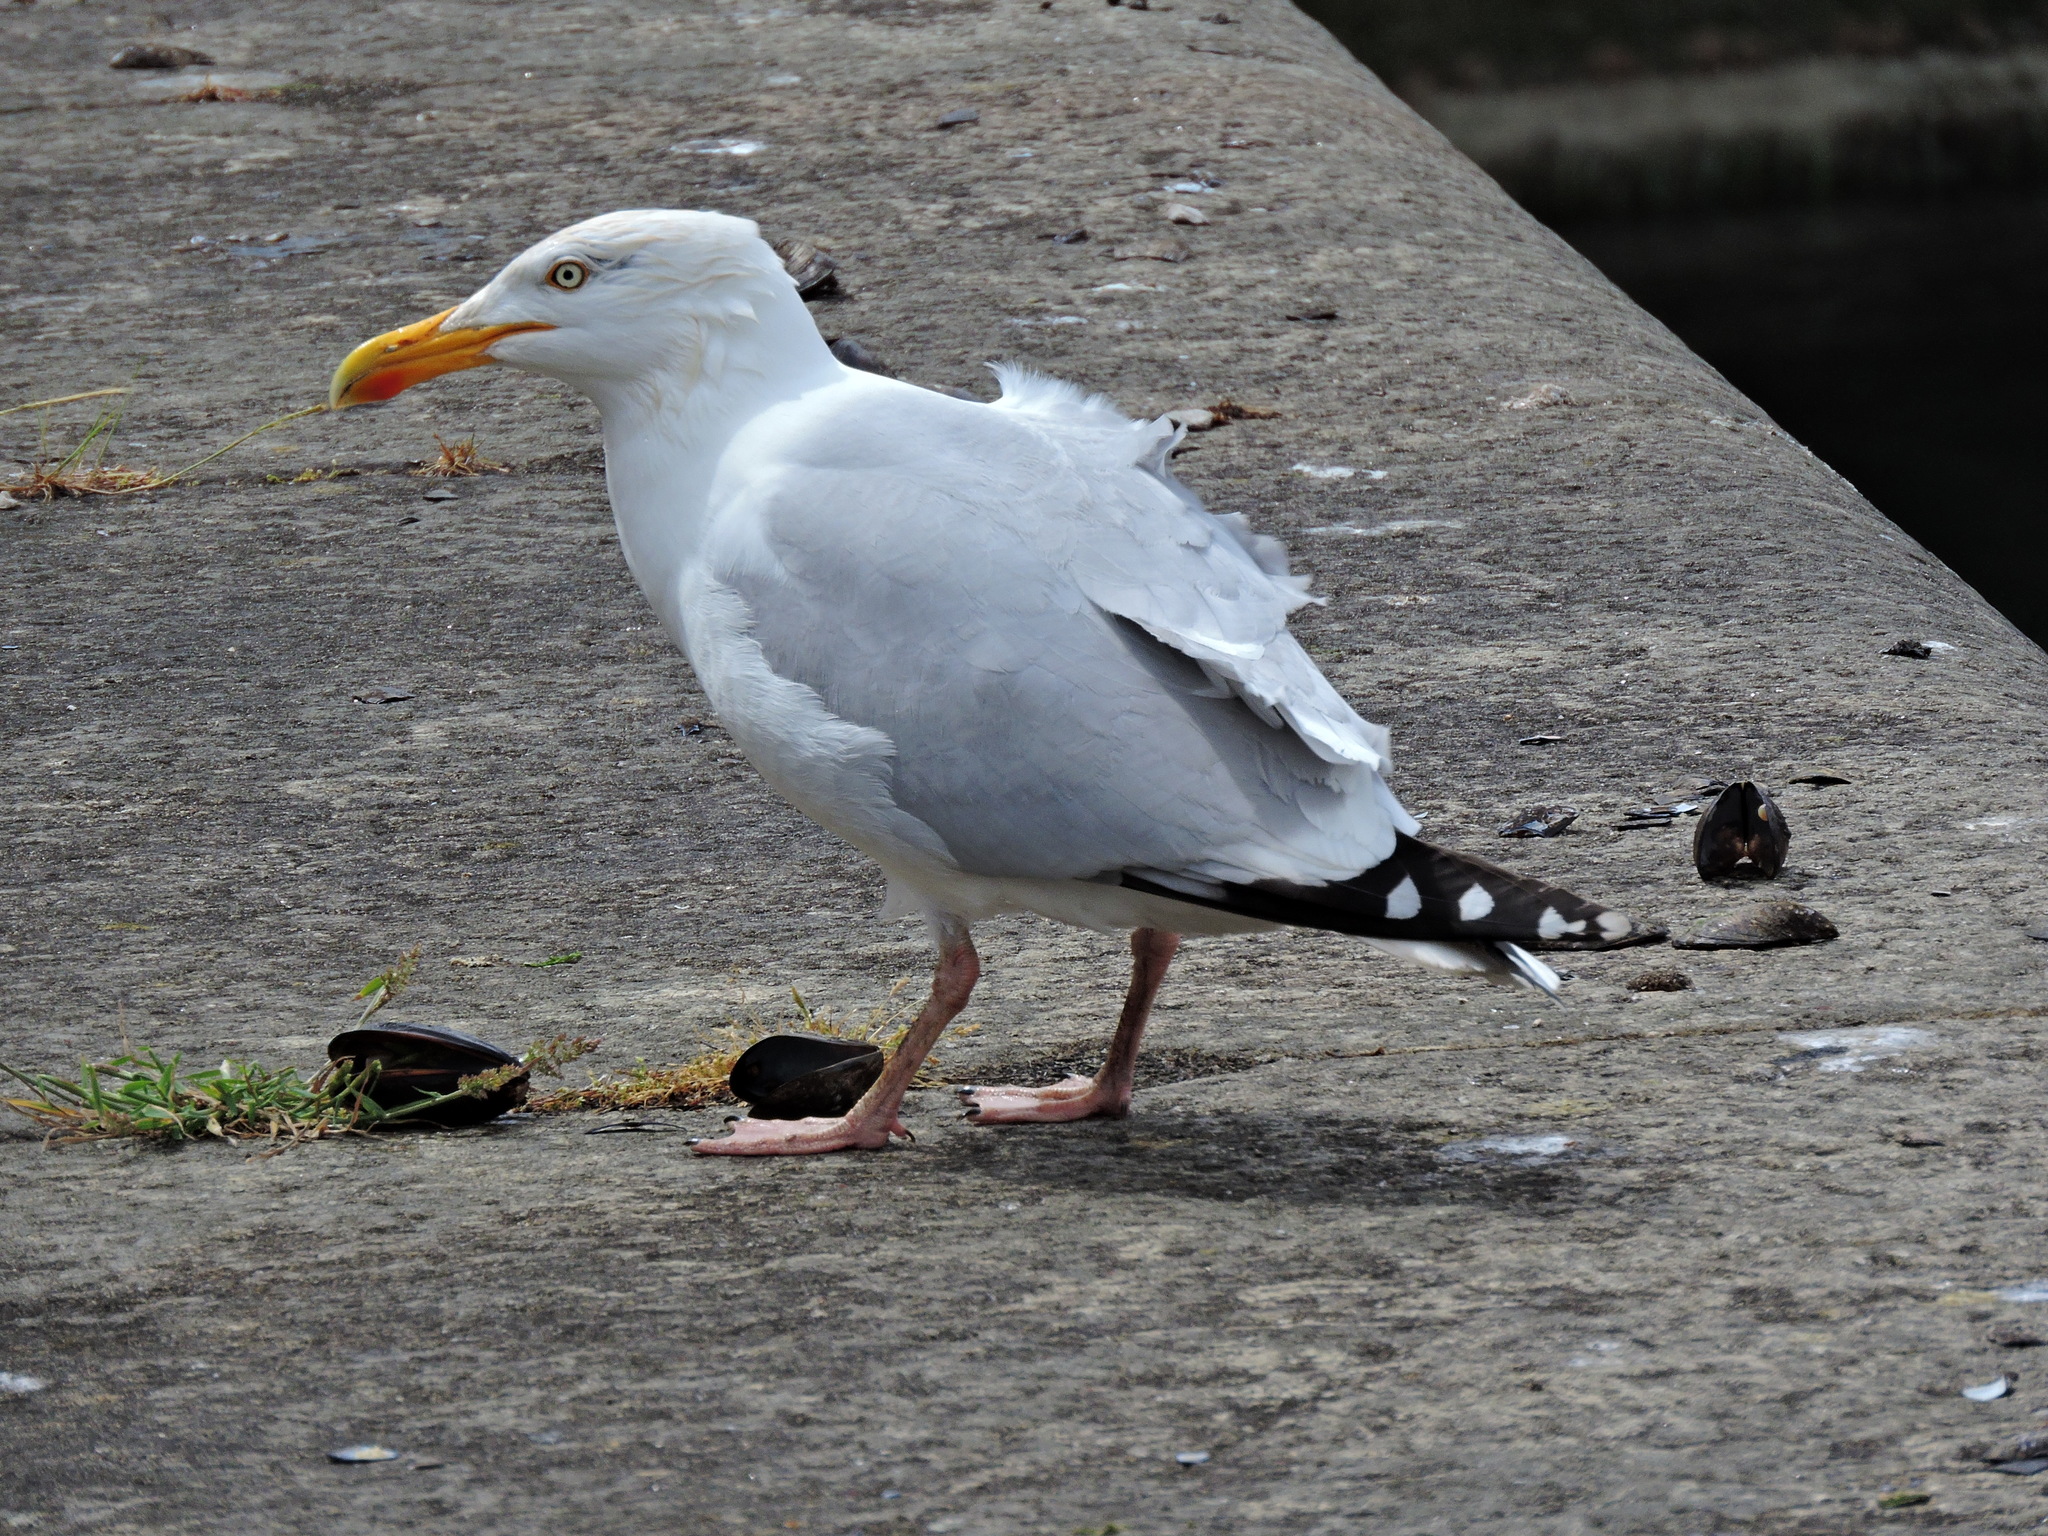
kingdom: Animalia
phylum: Chordata
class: Aves
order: Charadriiformes
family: Laridae
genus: Larus
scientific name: Larus argentatus
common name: Herring gull
